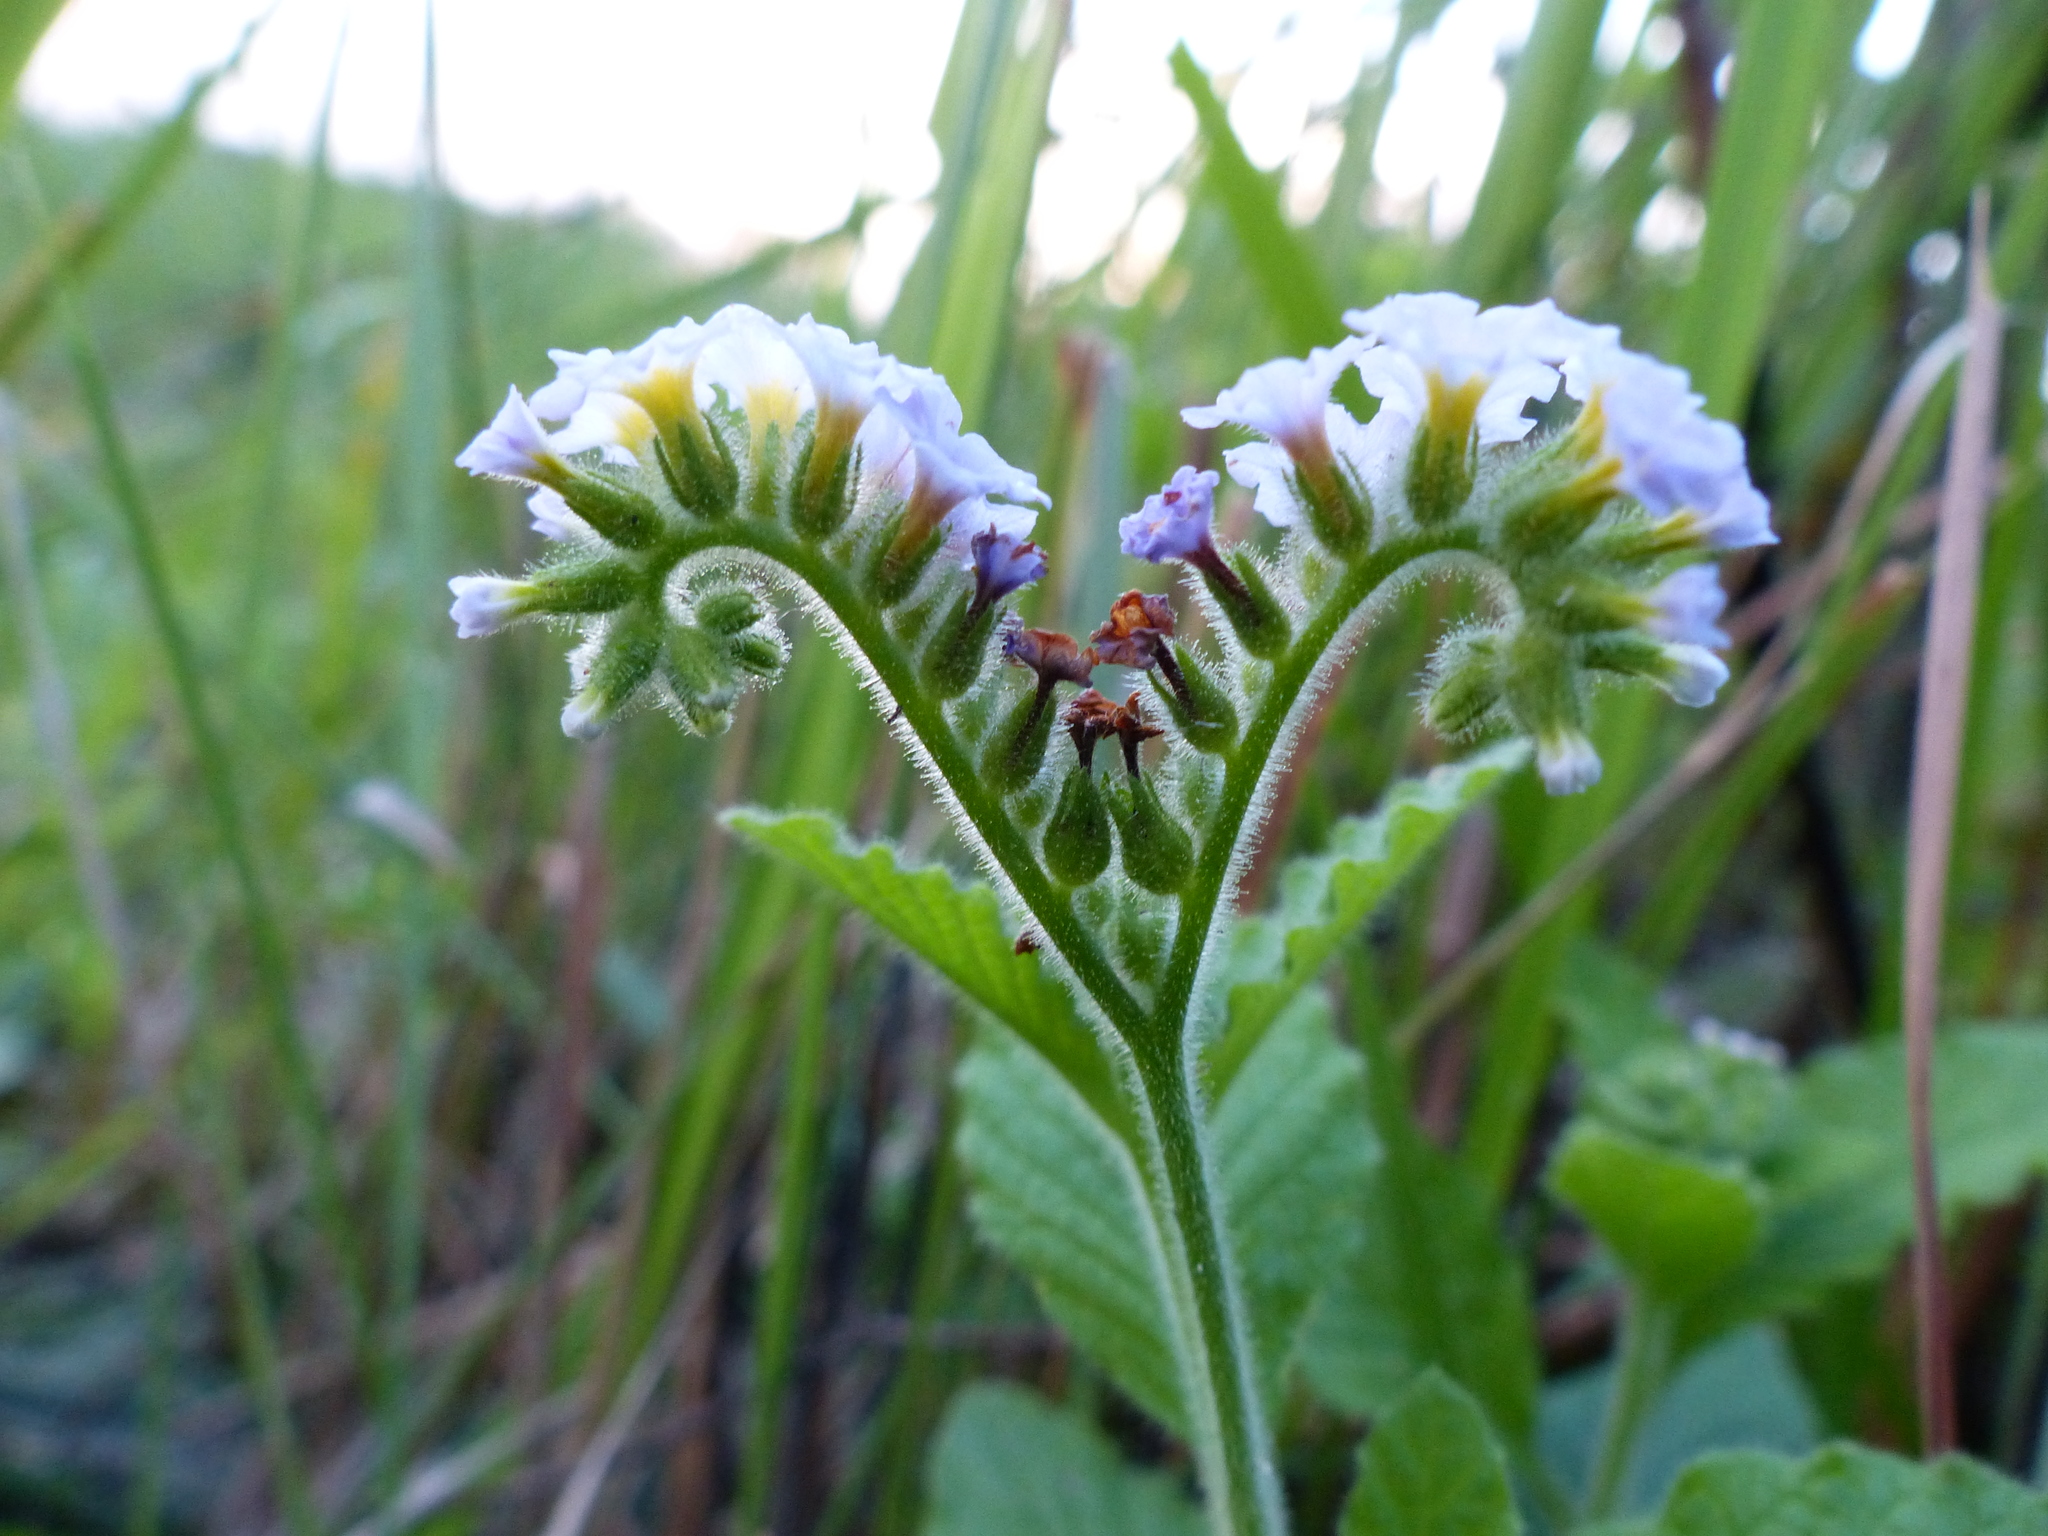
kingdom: Plantae
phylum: Tracheophyta
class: Magnoliopsida
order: Boraginales
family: Heliotropiaceae
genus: Heliotropium
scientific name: Heliotropium amplexicaule
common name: Clasping heliotrope
